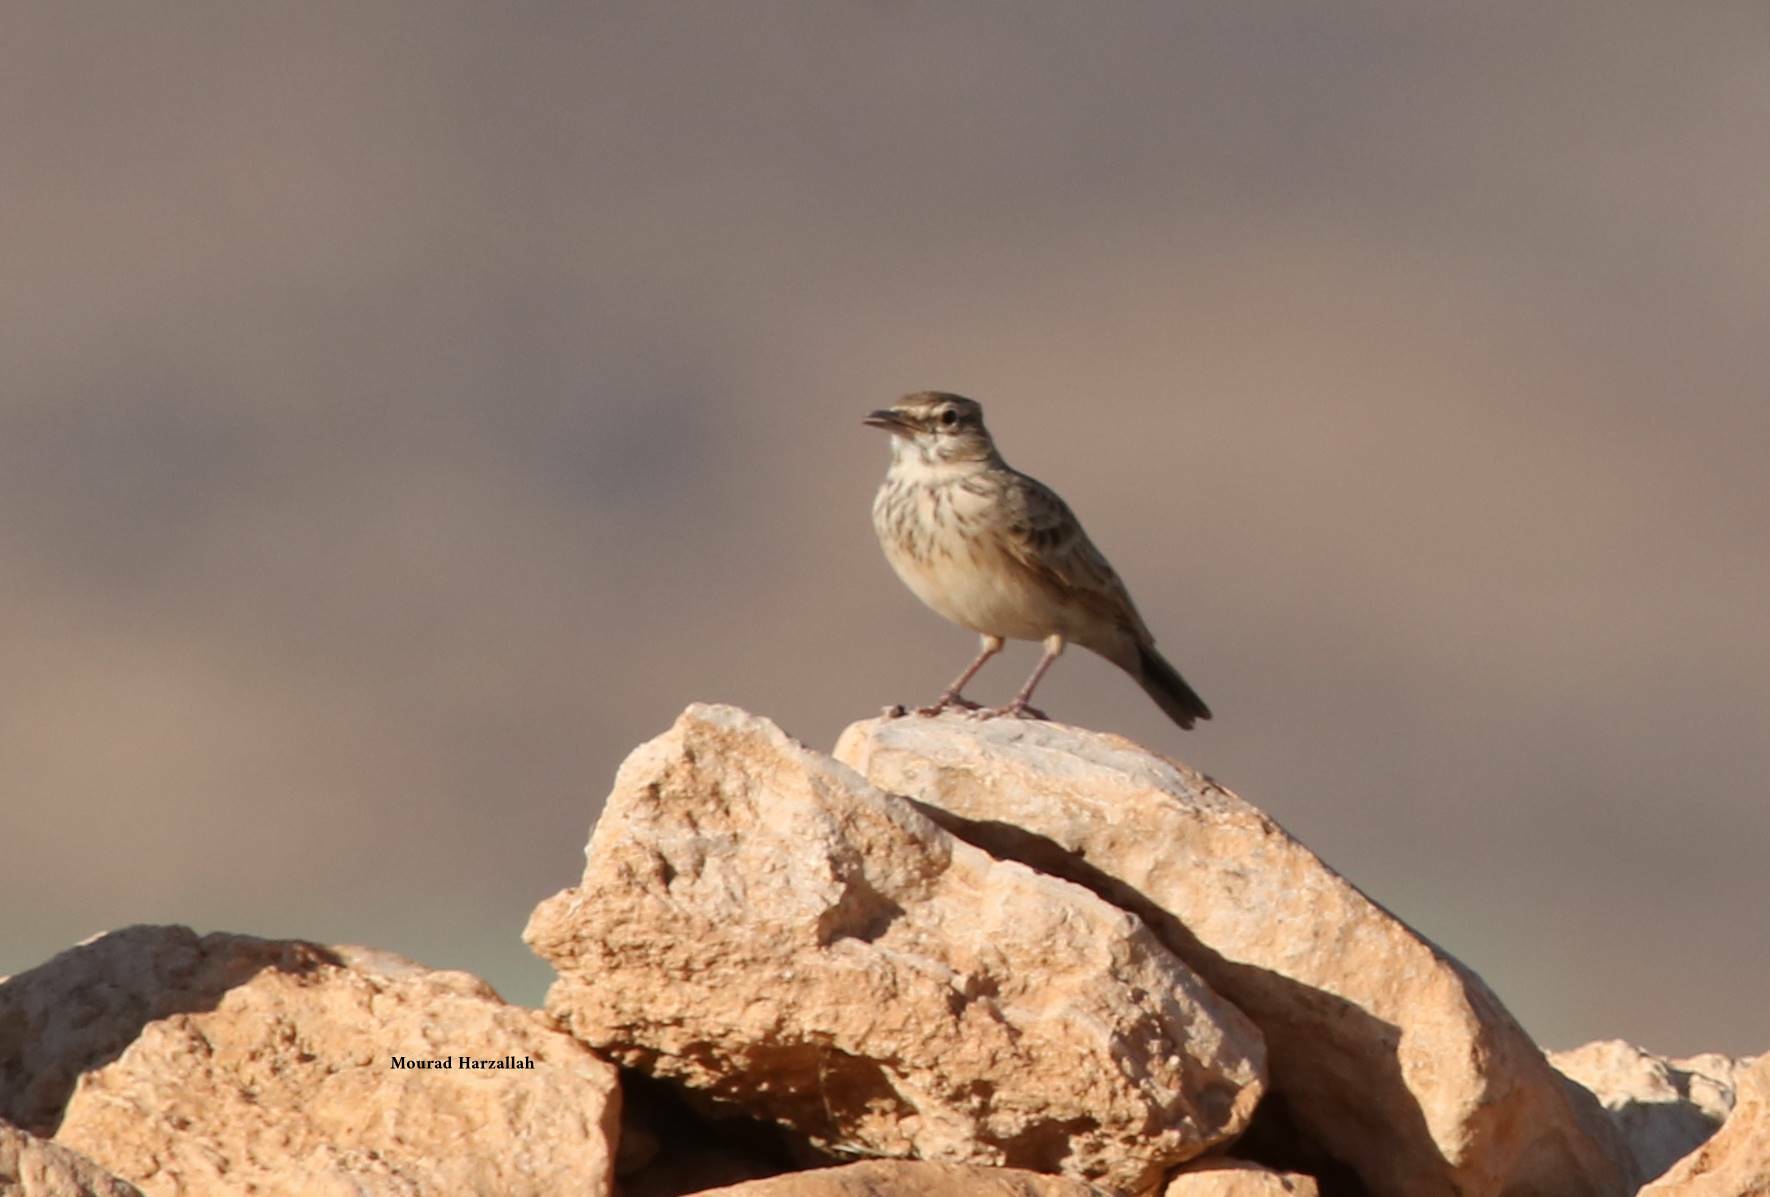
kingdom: Animalia
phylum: Chordata
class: Aves
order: Passeriformes
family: Alaudidae
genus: Galerida
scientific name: Galerida cristata
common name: Crested lark
